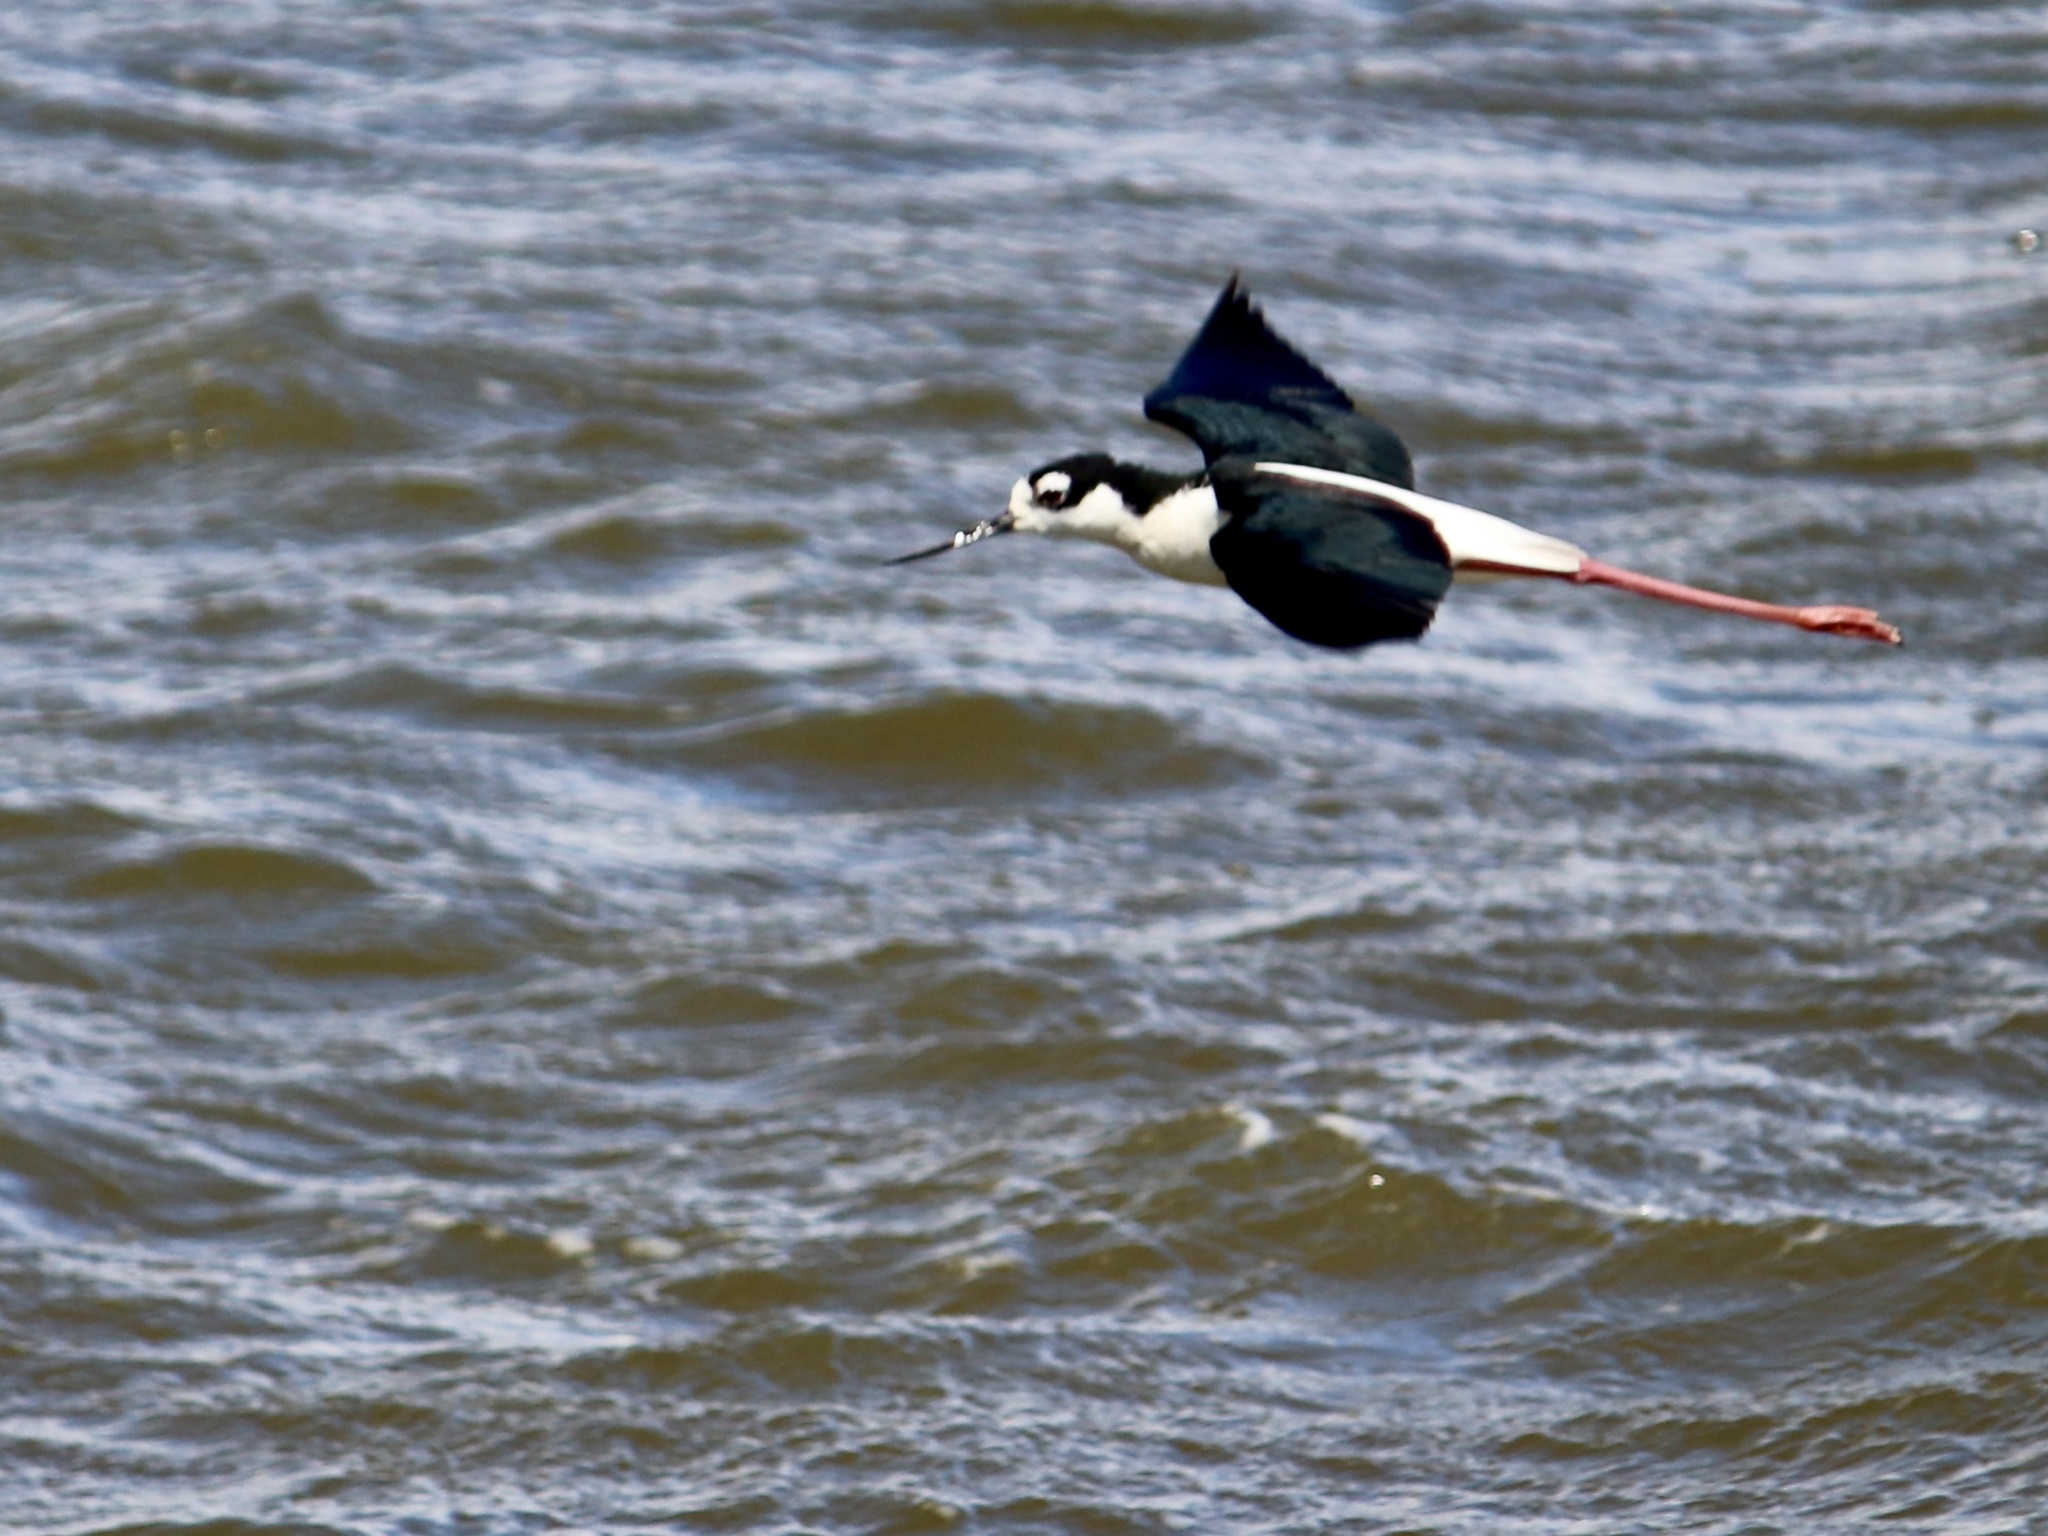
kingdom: Animalia
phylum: Chordata
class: Aves
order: Charadriiformes
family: Recurvirostridae
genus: Himantopus
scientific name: Himantopus mexicanus
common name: Black-necked stilt
